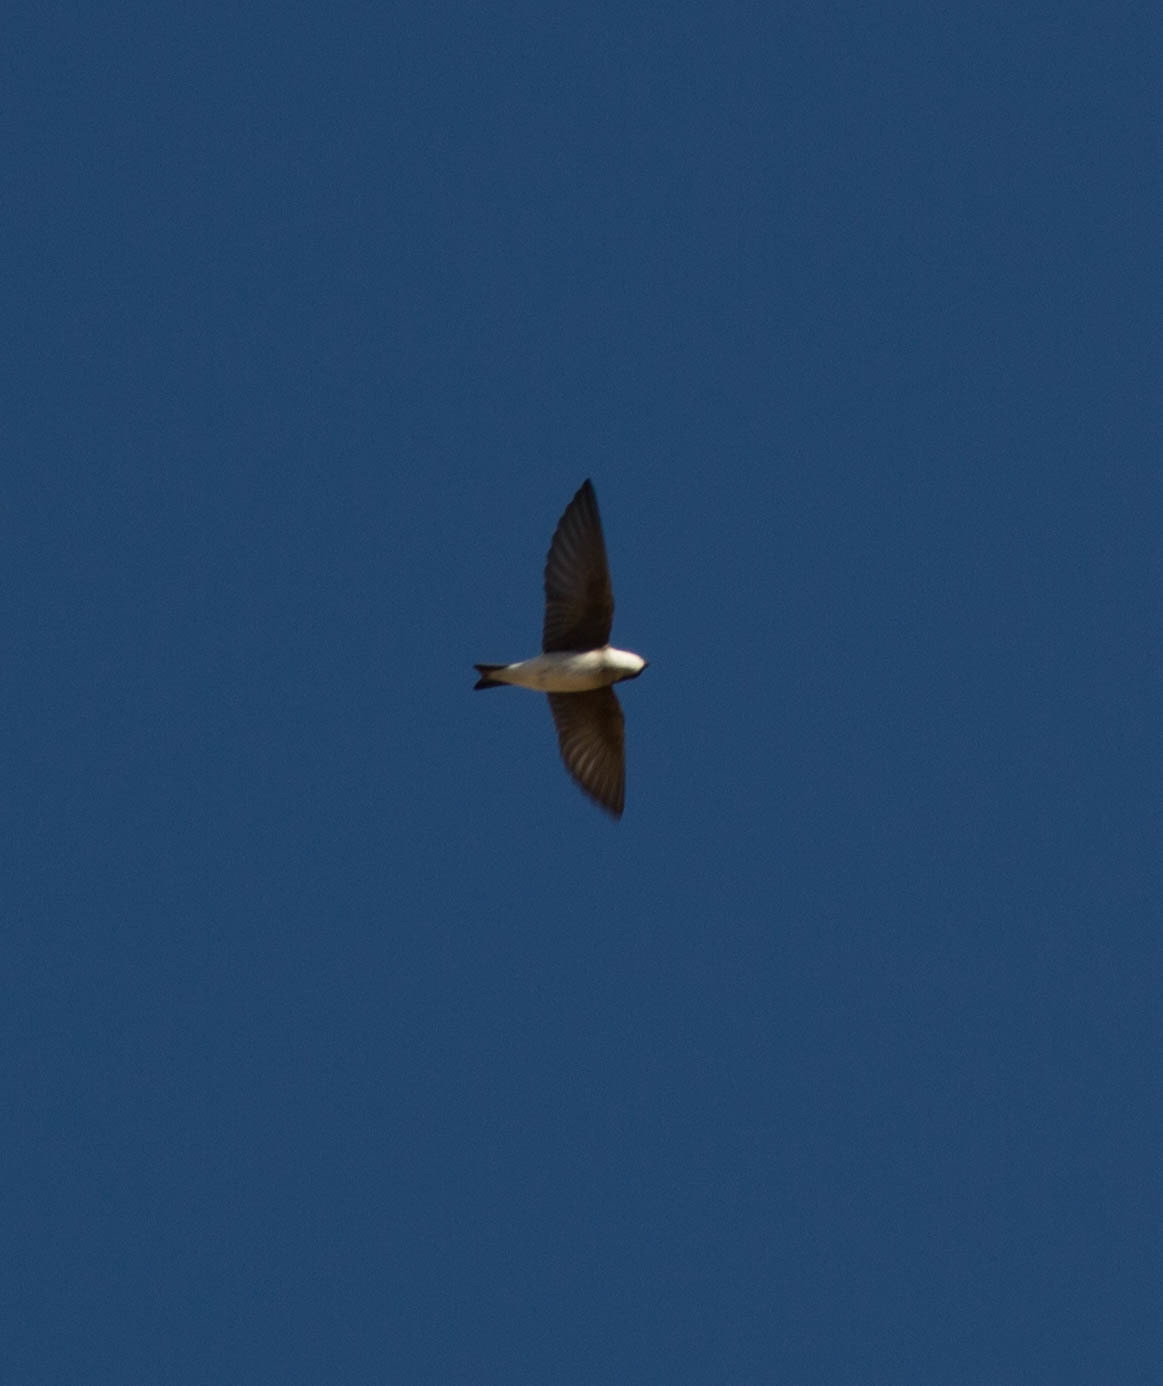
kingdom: Animalia
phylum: Chordata
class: Aves
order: Passeriformes
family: Hirundinidae
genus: Tachycineta
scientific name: Tachycineta bicolor
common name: Tree swallow
